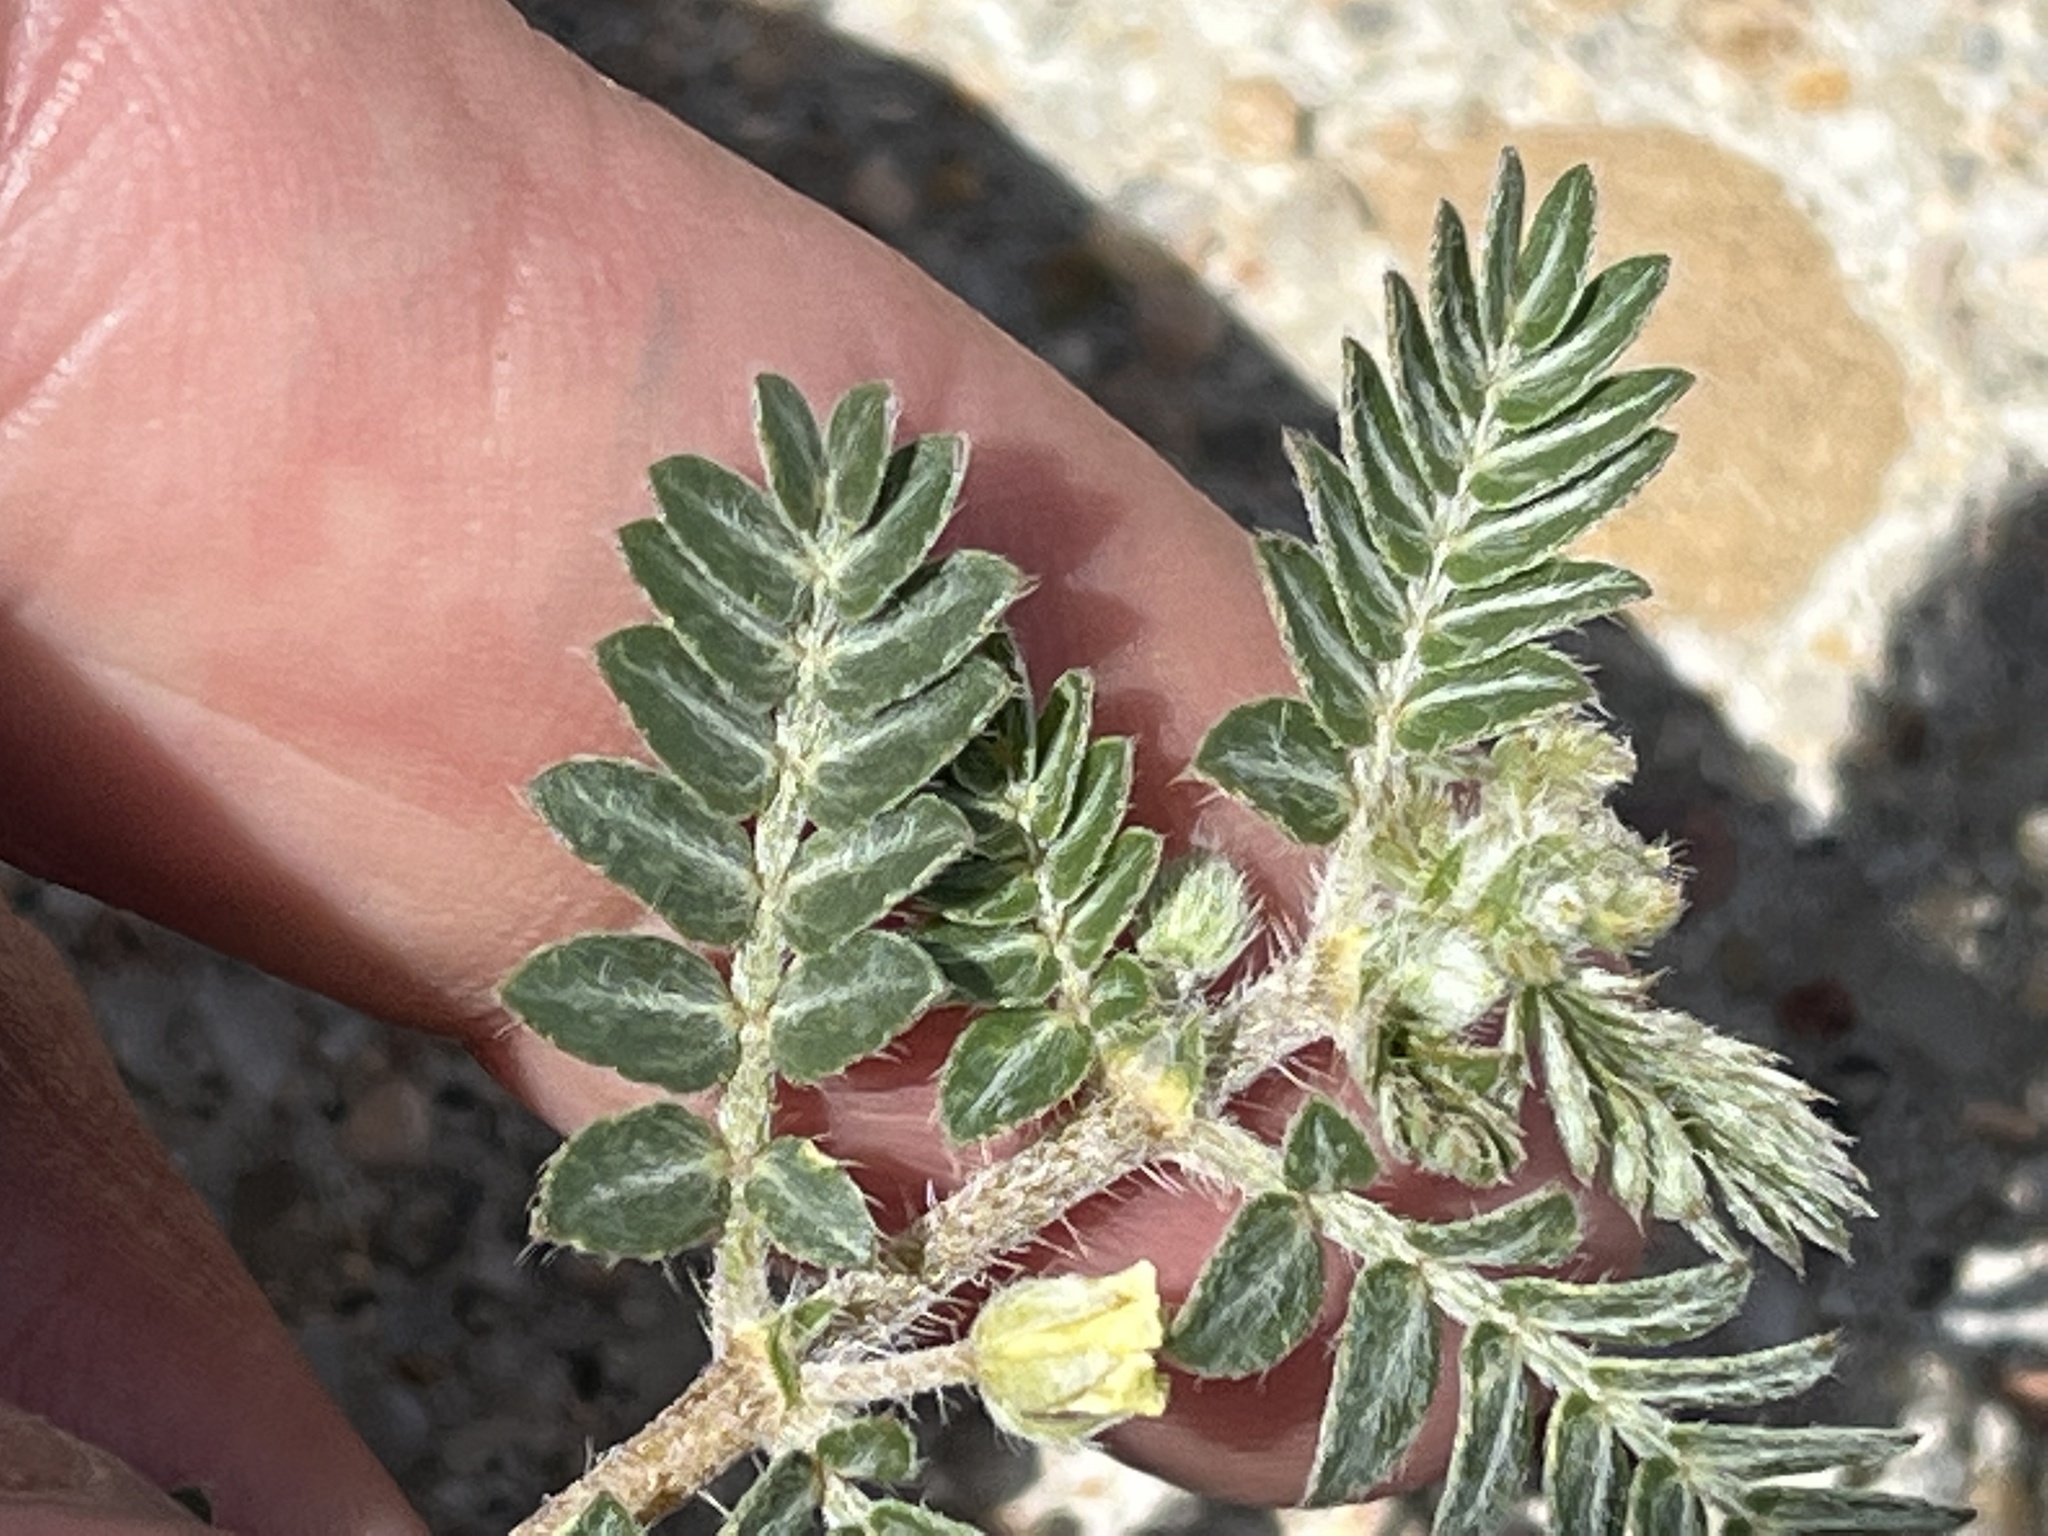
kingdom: Plantae
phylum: Tracheophyta
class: Magnoliopsida
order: Zygophyllales
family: Zygophyllaceae
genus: Tribulus
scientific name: Tribulus terrestris
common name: Puncturevine
